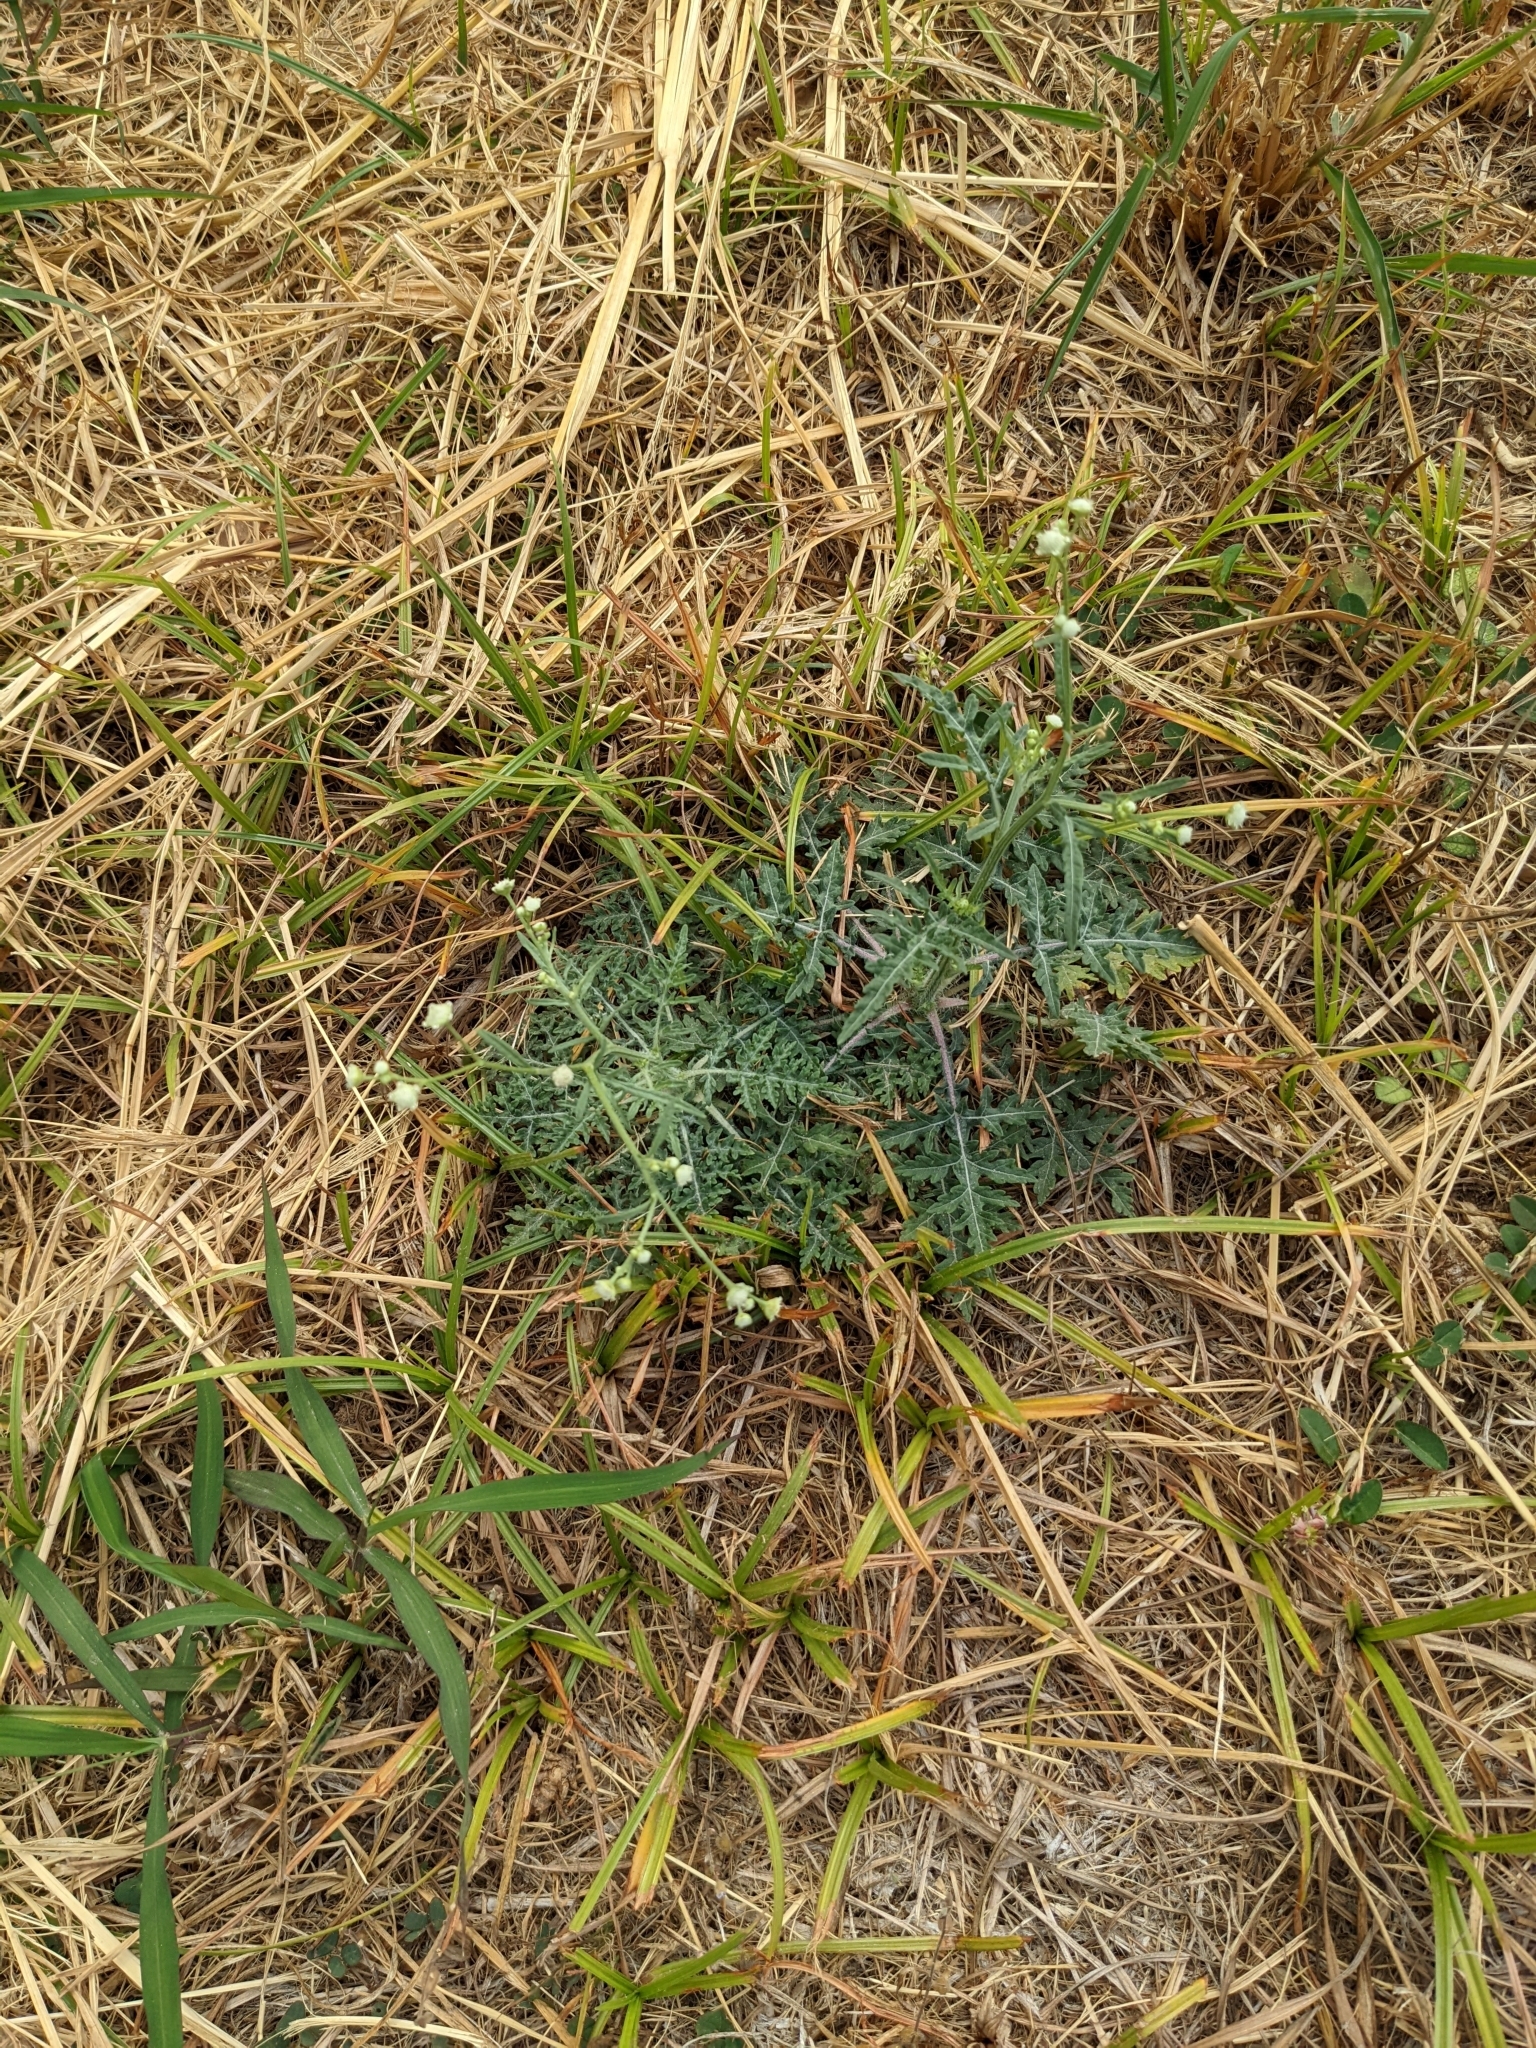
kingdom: Plantae
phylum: Tracheophyta
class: Magnoliopsida
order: Asterales
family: Asteraceae
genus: Parthenium
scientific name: Parthenium hysterophorus
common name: Santa maria feverfew
